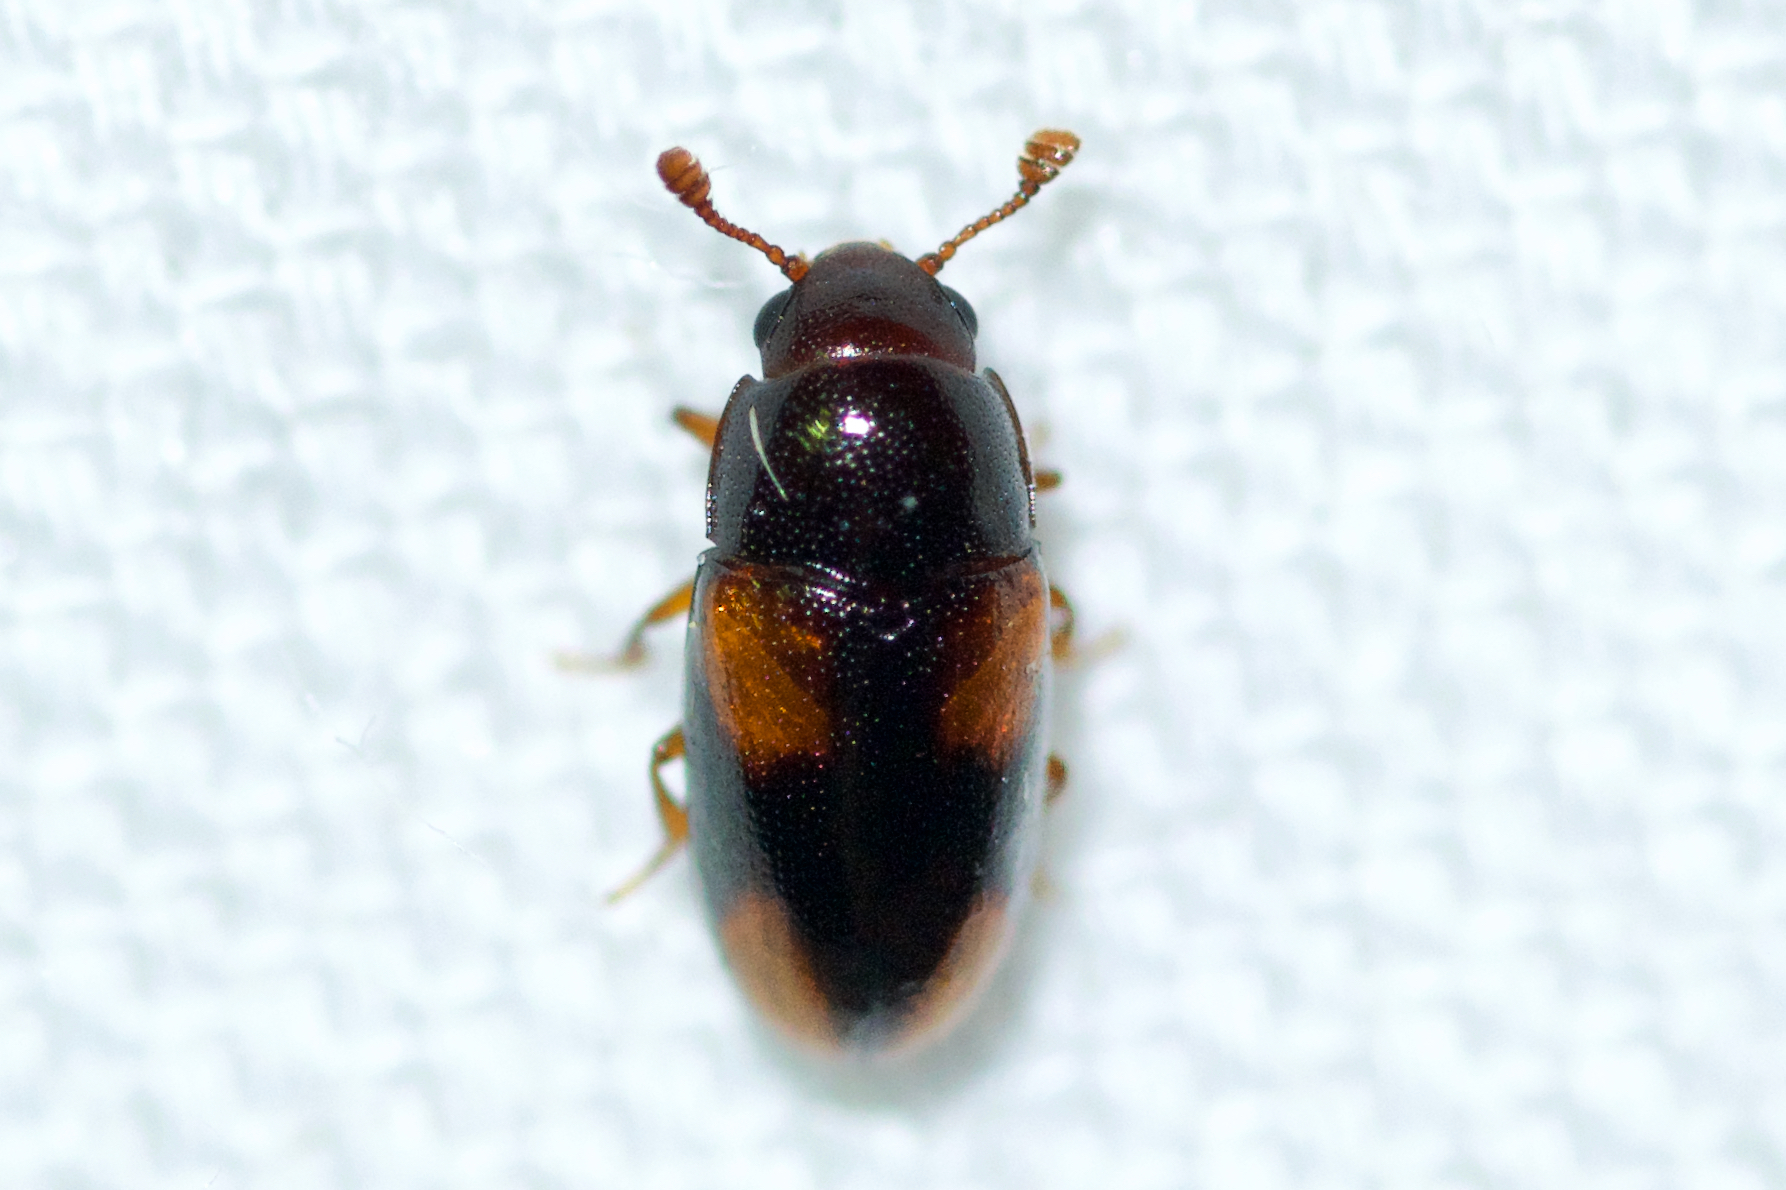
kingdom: Animalia
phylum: Arthropoda
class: Insecta
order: Coleoptera
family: Erotylidae
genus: Dacne
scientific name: Dacne quadrimaculata
